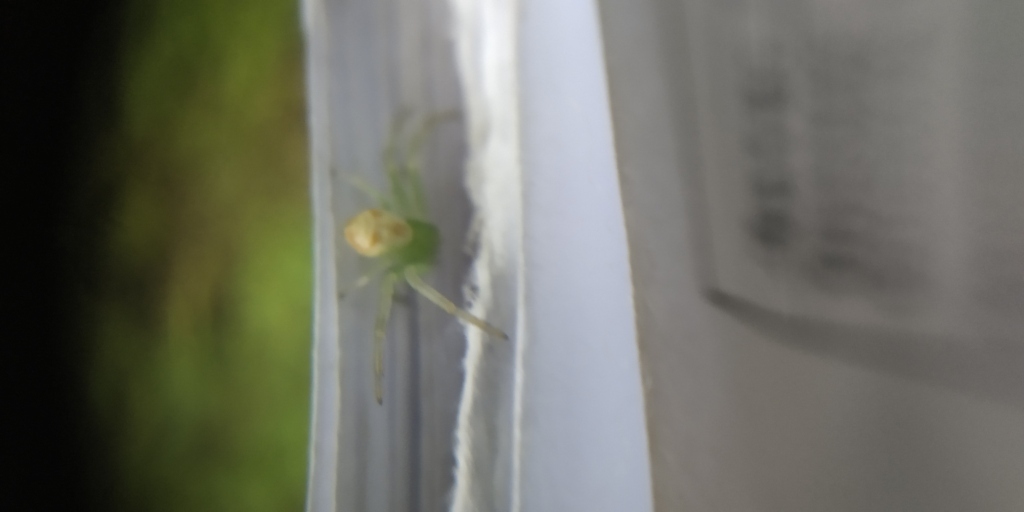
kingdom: Animalia
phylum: Arthropoda
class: Arachnida
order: Araneae
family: Thomisidae
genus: Ebrechtella
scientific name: Ebrechtella tricuspidata
